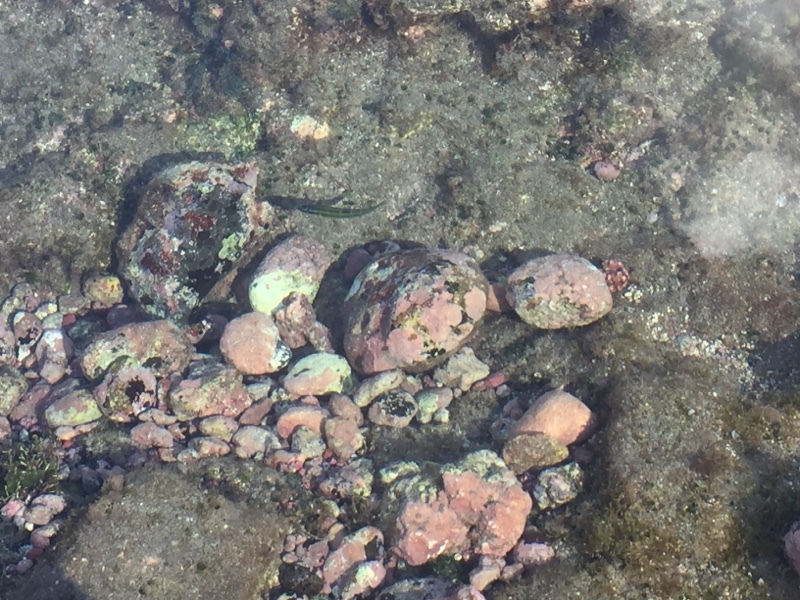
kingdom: Animalia
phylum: Chordata
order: Perciformes
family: Labridae
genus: Thalassoma
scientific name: Thalassoma pavo
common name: Ornate wrasse
